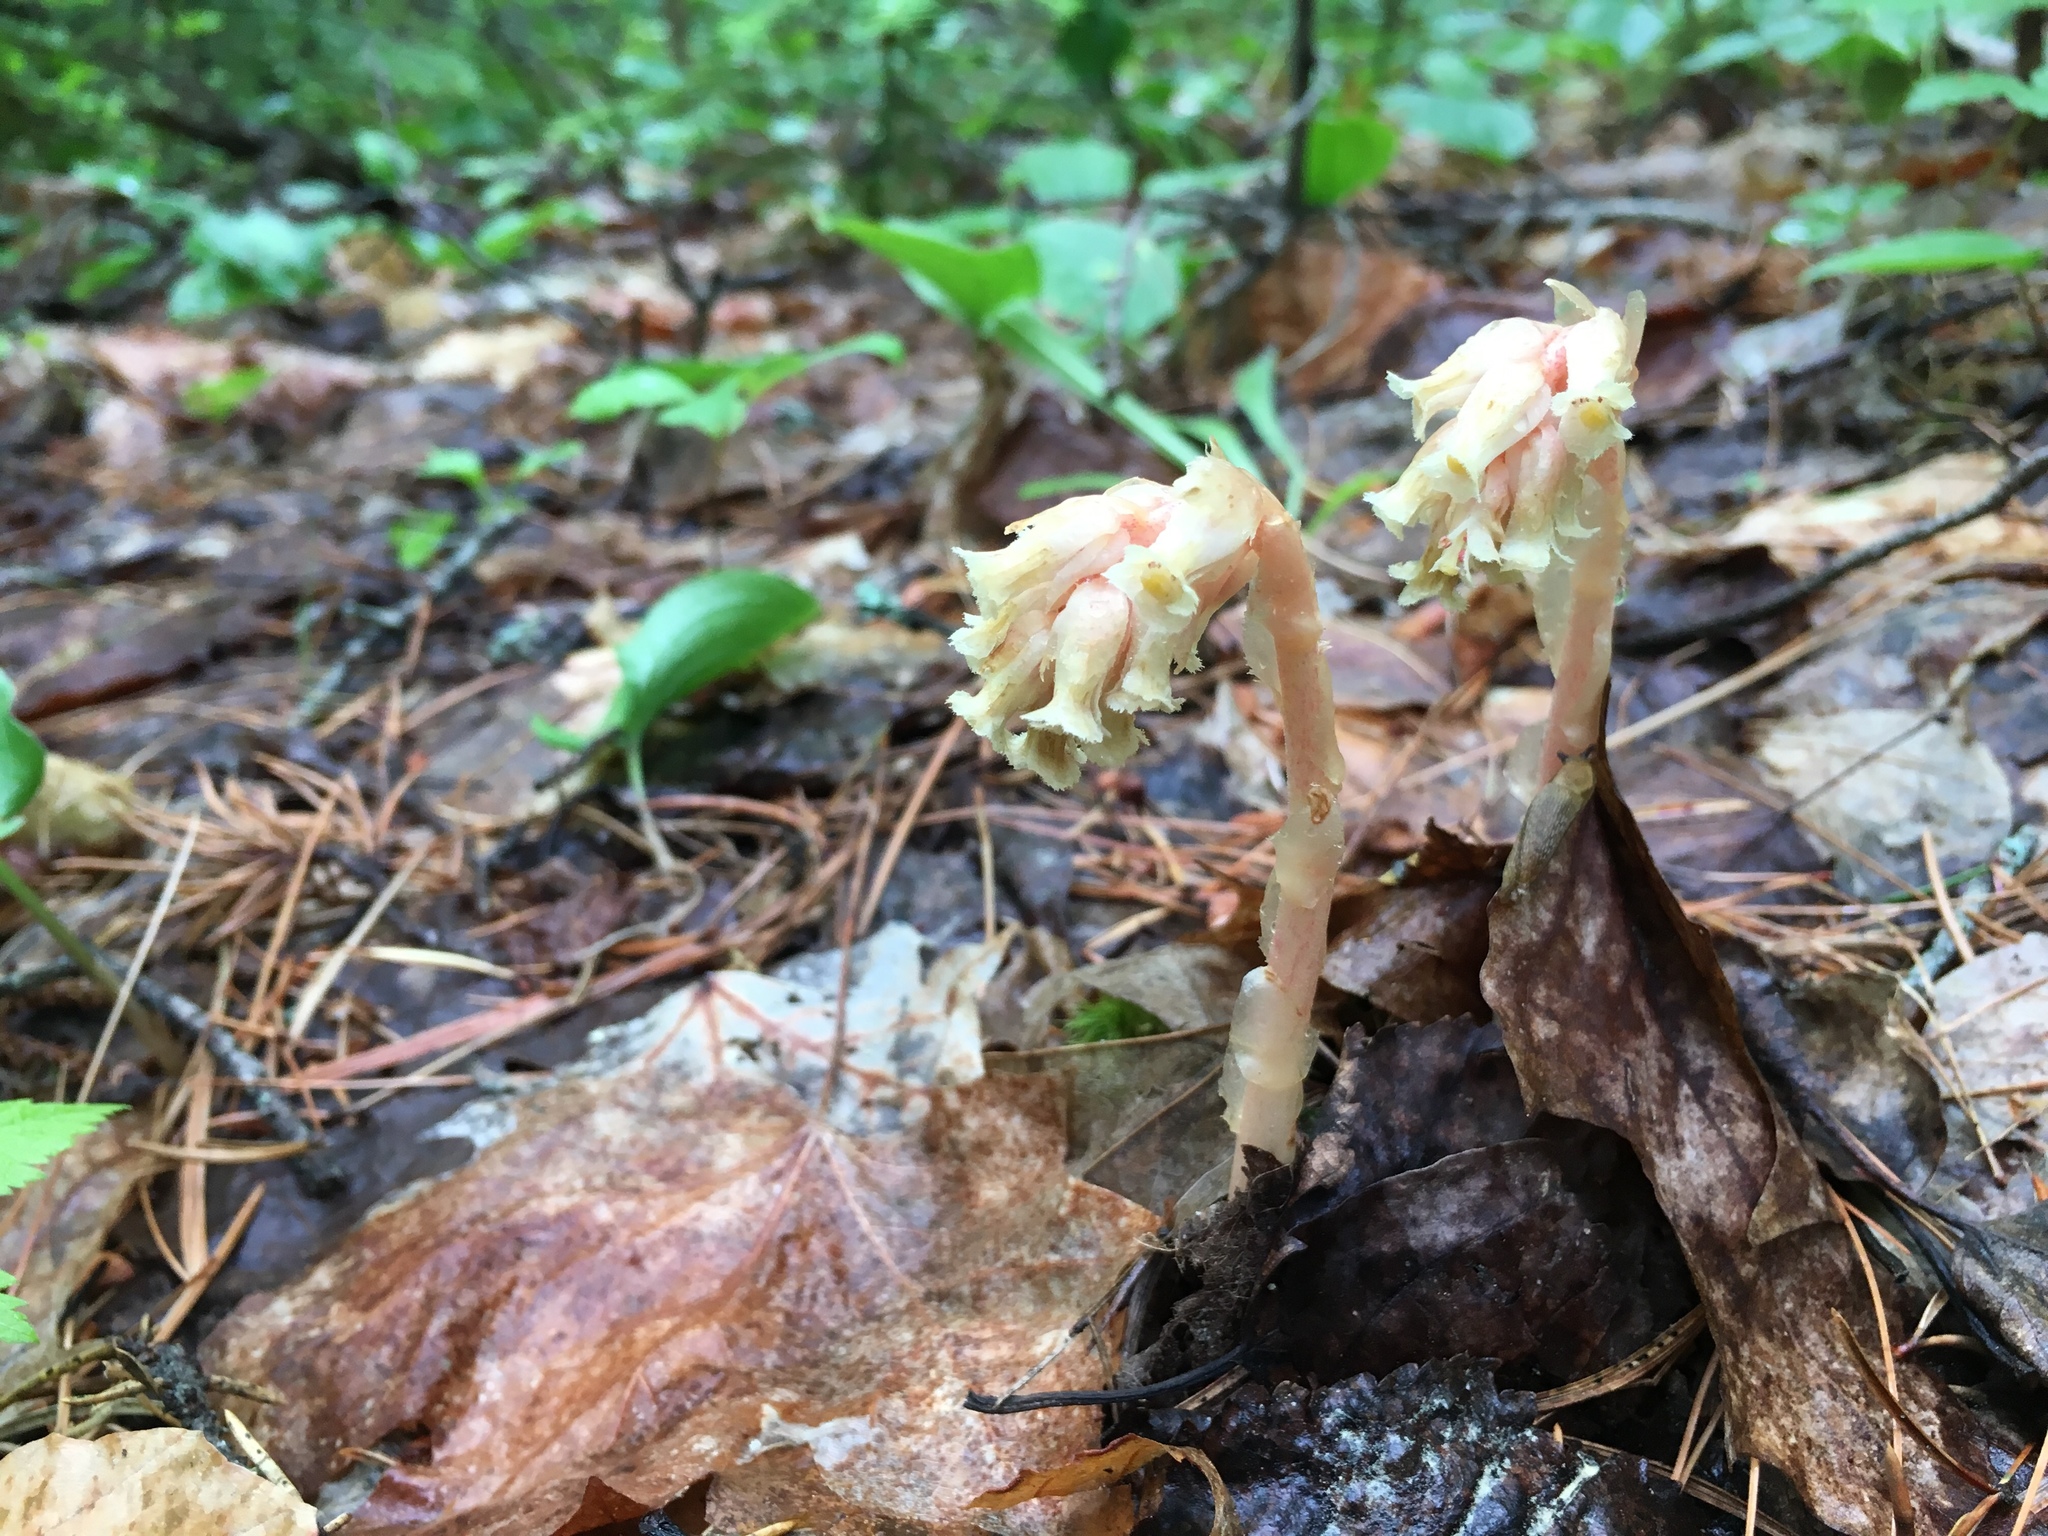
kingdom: Plantae
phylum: Tracheophyta
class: Magnoliopsida
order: Ericales
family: Ericaceae
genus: Hypopitys
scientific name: Hypopitys monotropa
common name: Yellow bird's-nest
